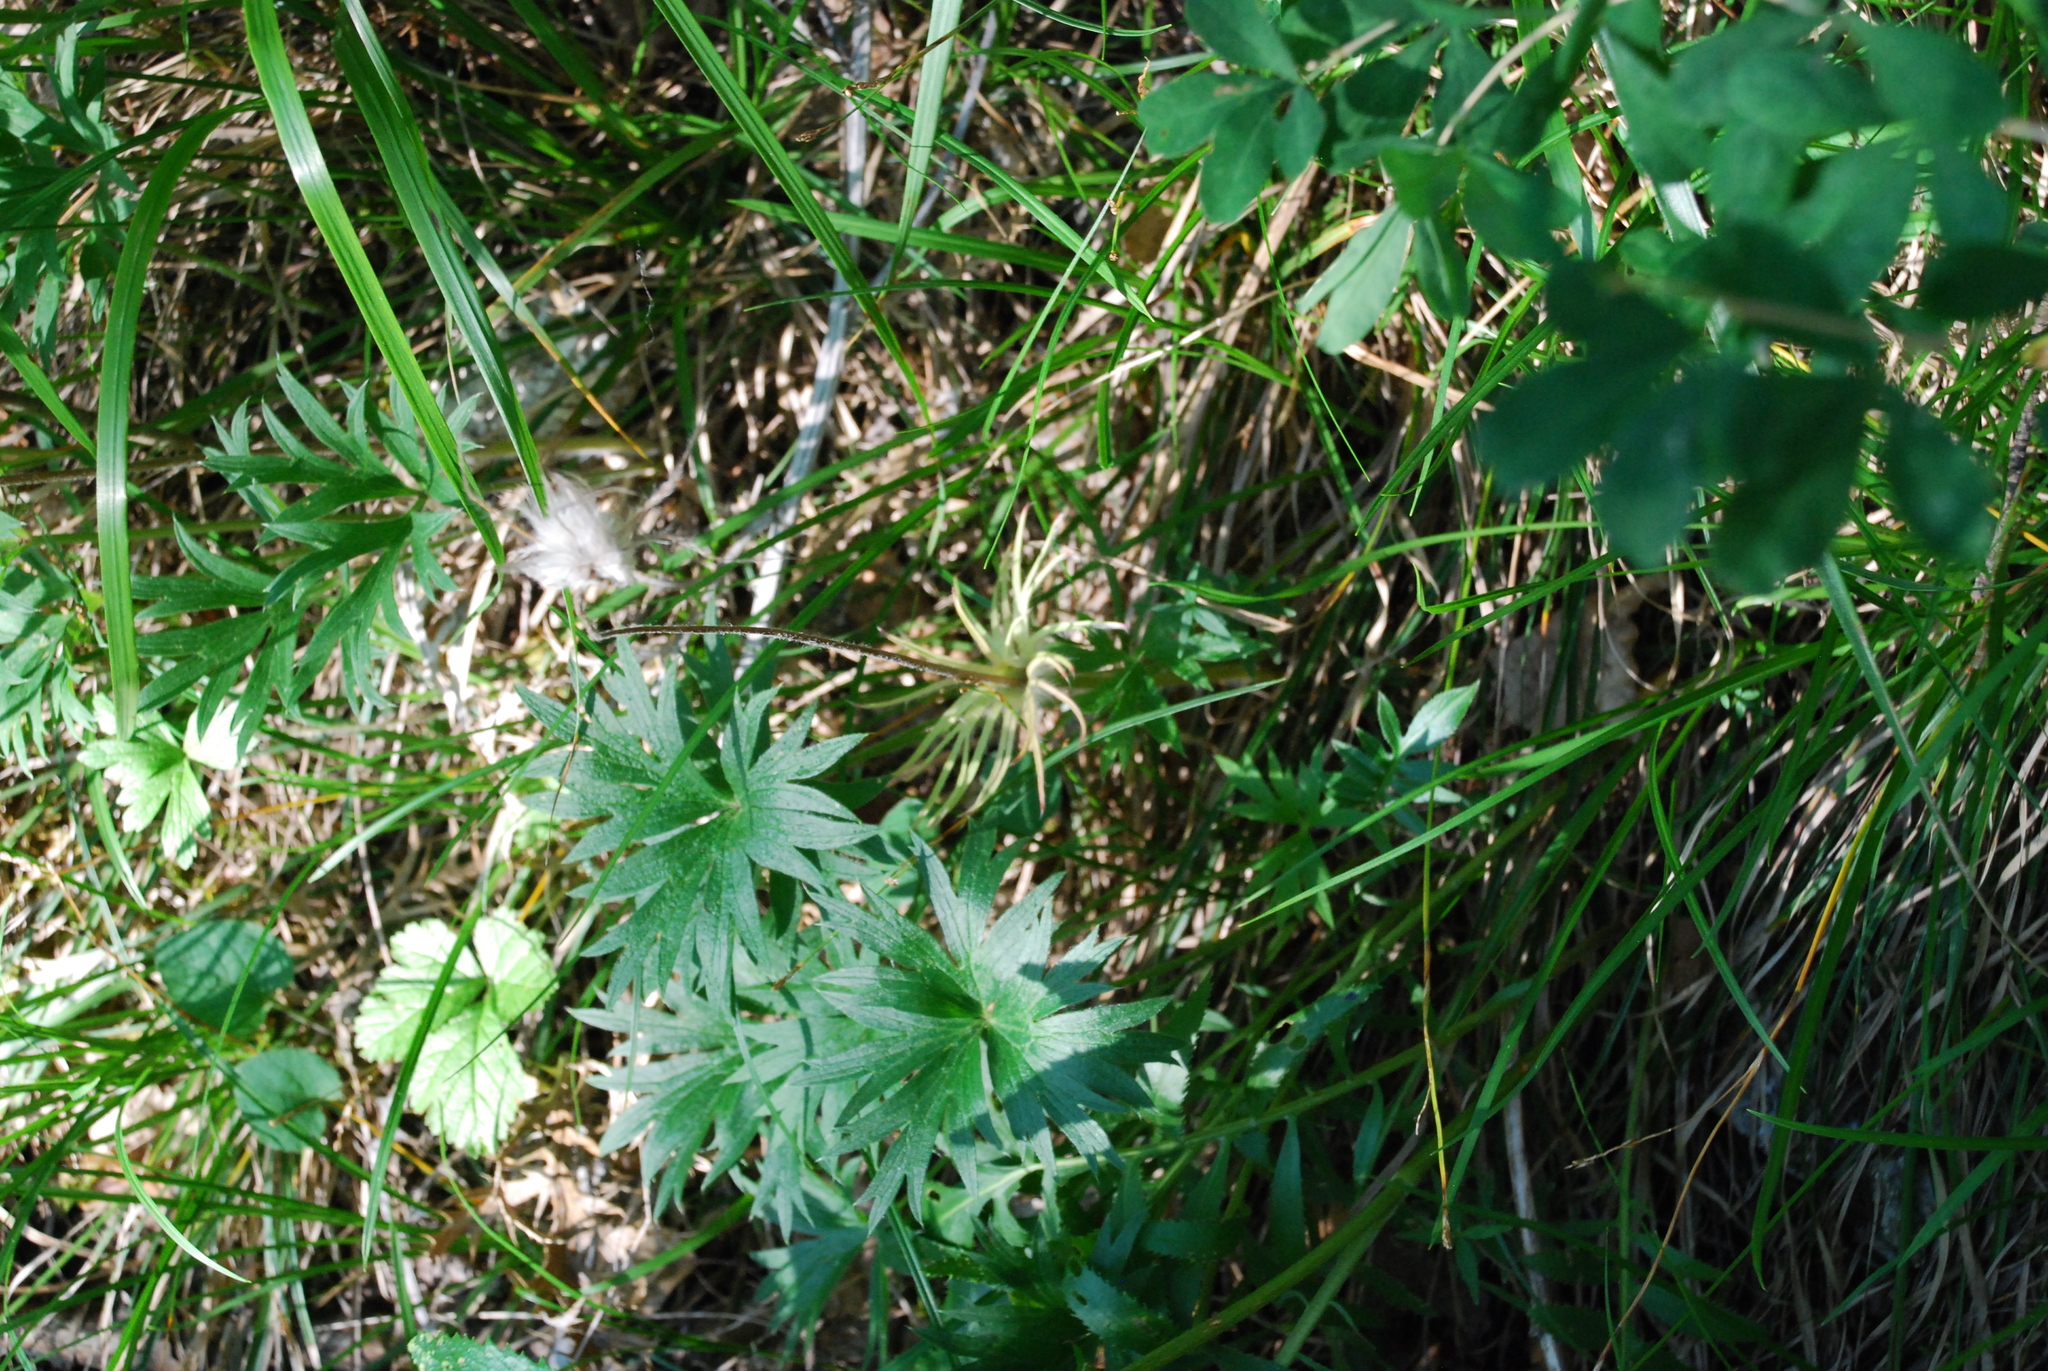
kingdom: Plantae
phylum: Tracheophyta
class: Magnoliopsida
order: Ranunculales
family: Ranunculaceae
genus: Pulsatilla
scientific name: Pulsatilla patens
